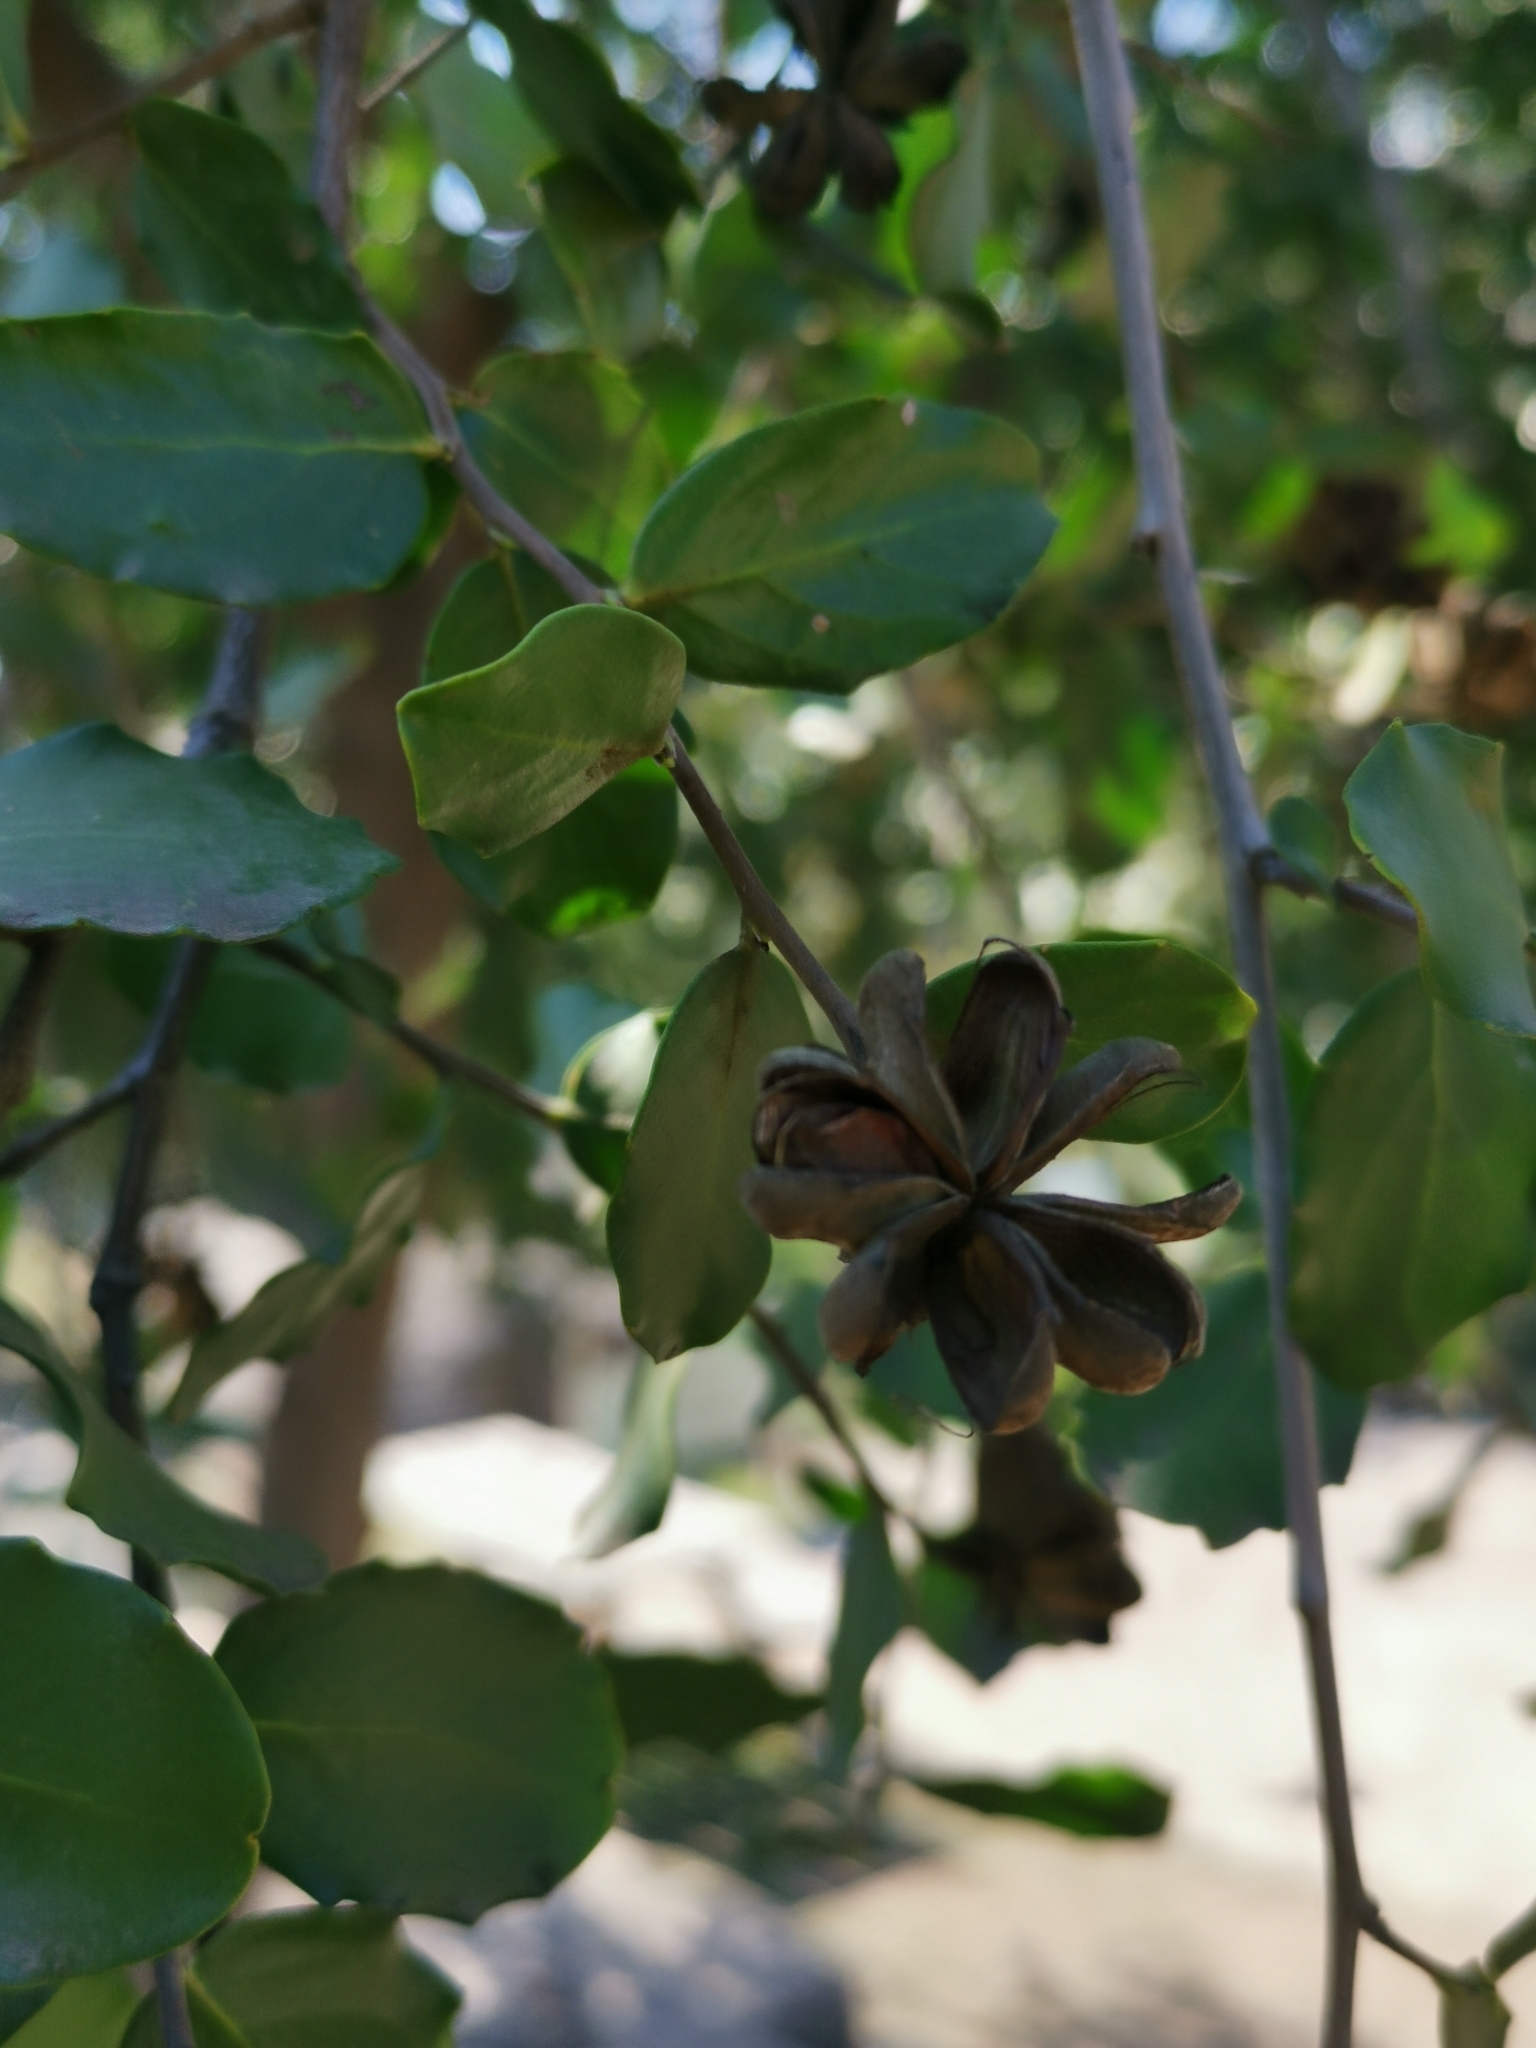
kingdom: Plantae
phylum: Tracheophyta
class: Magnoliopsida
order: Fabales
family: Quillajaceae
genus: Quillaja
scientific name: Quillaja saponaria
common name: Murillo's-bark
